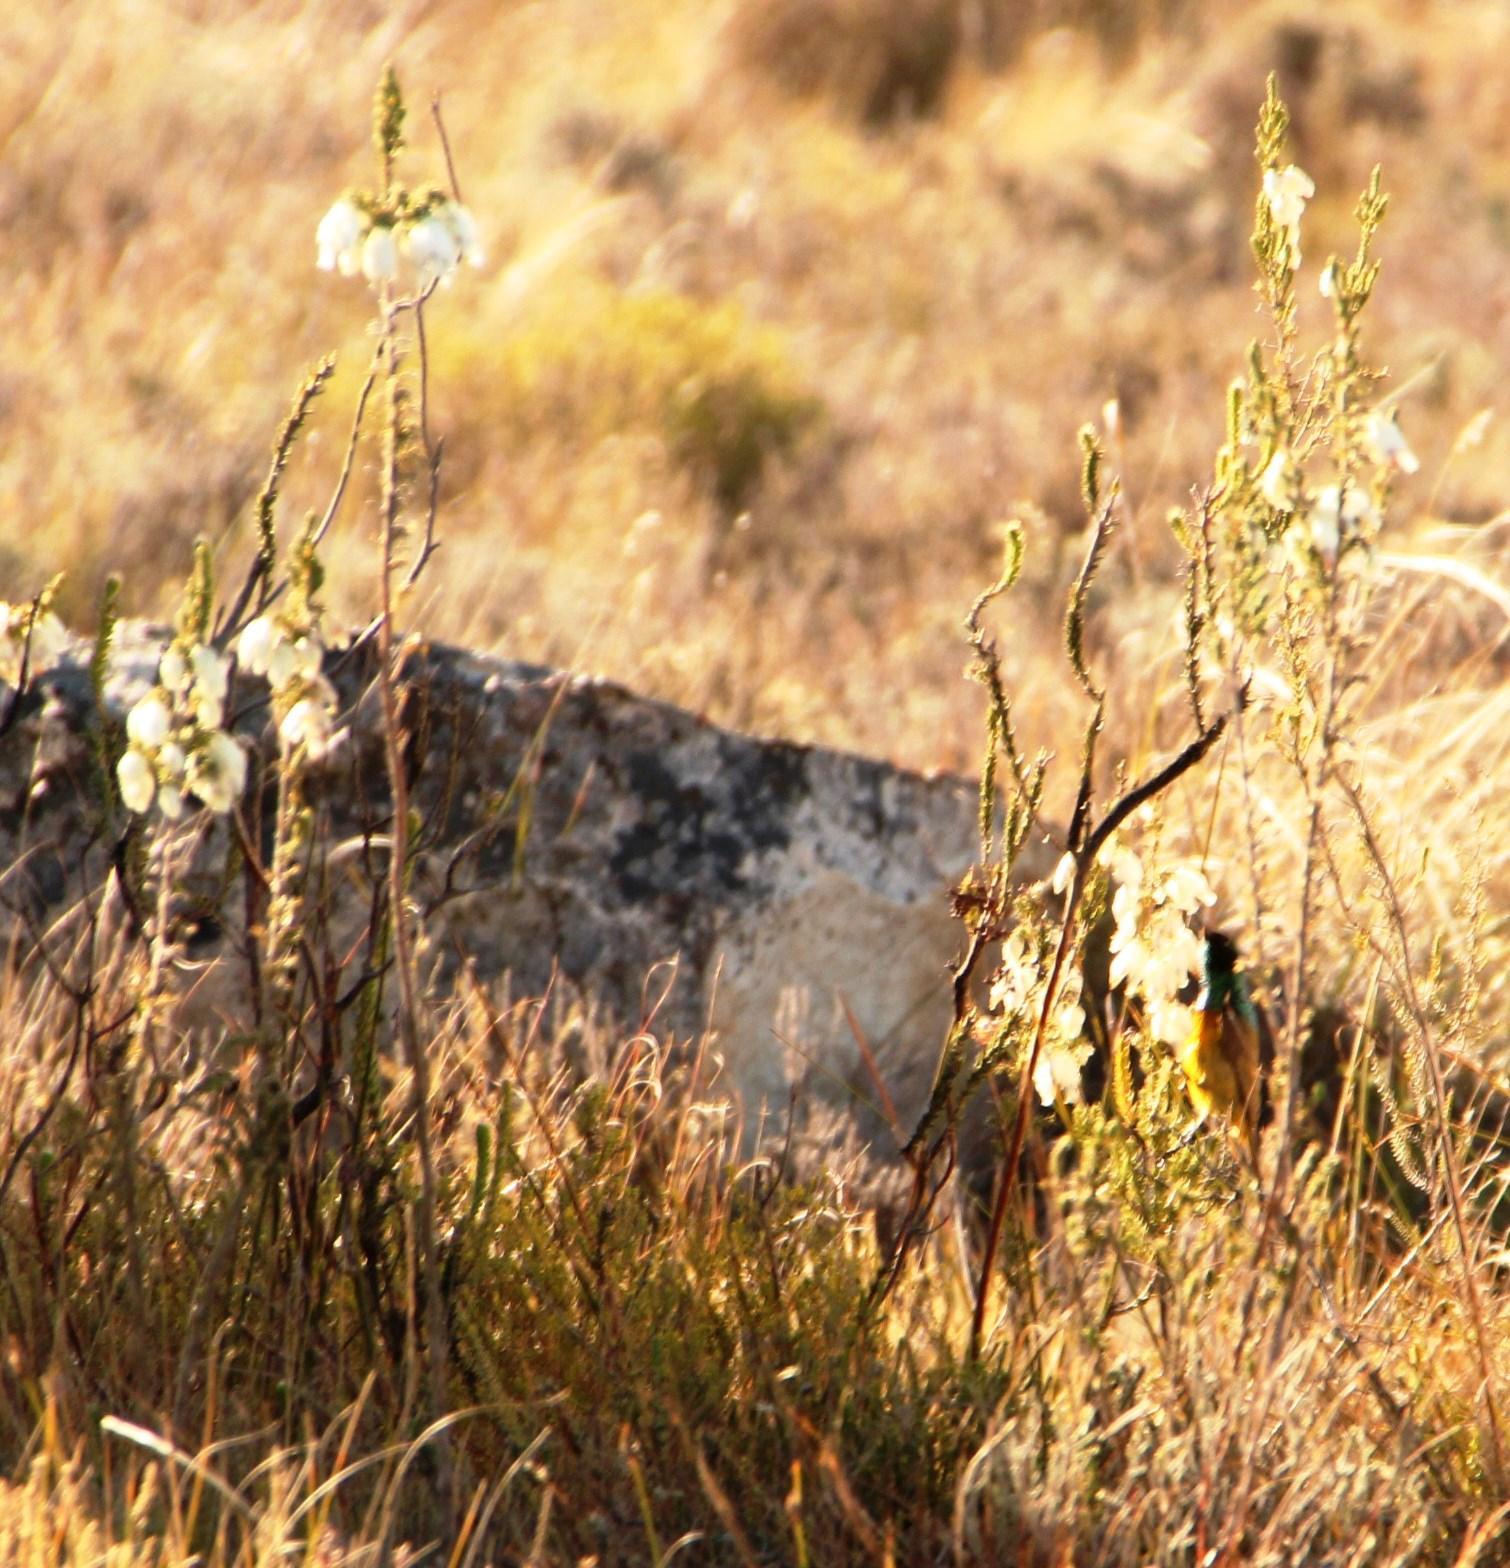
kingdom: Animalia
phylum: Chordata
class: Aves
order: Passeriformes
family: Nectariniidae
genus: Anthobaphes
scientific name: Anthobaphes violacea
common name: Orange-breasted sunbird
